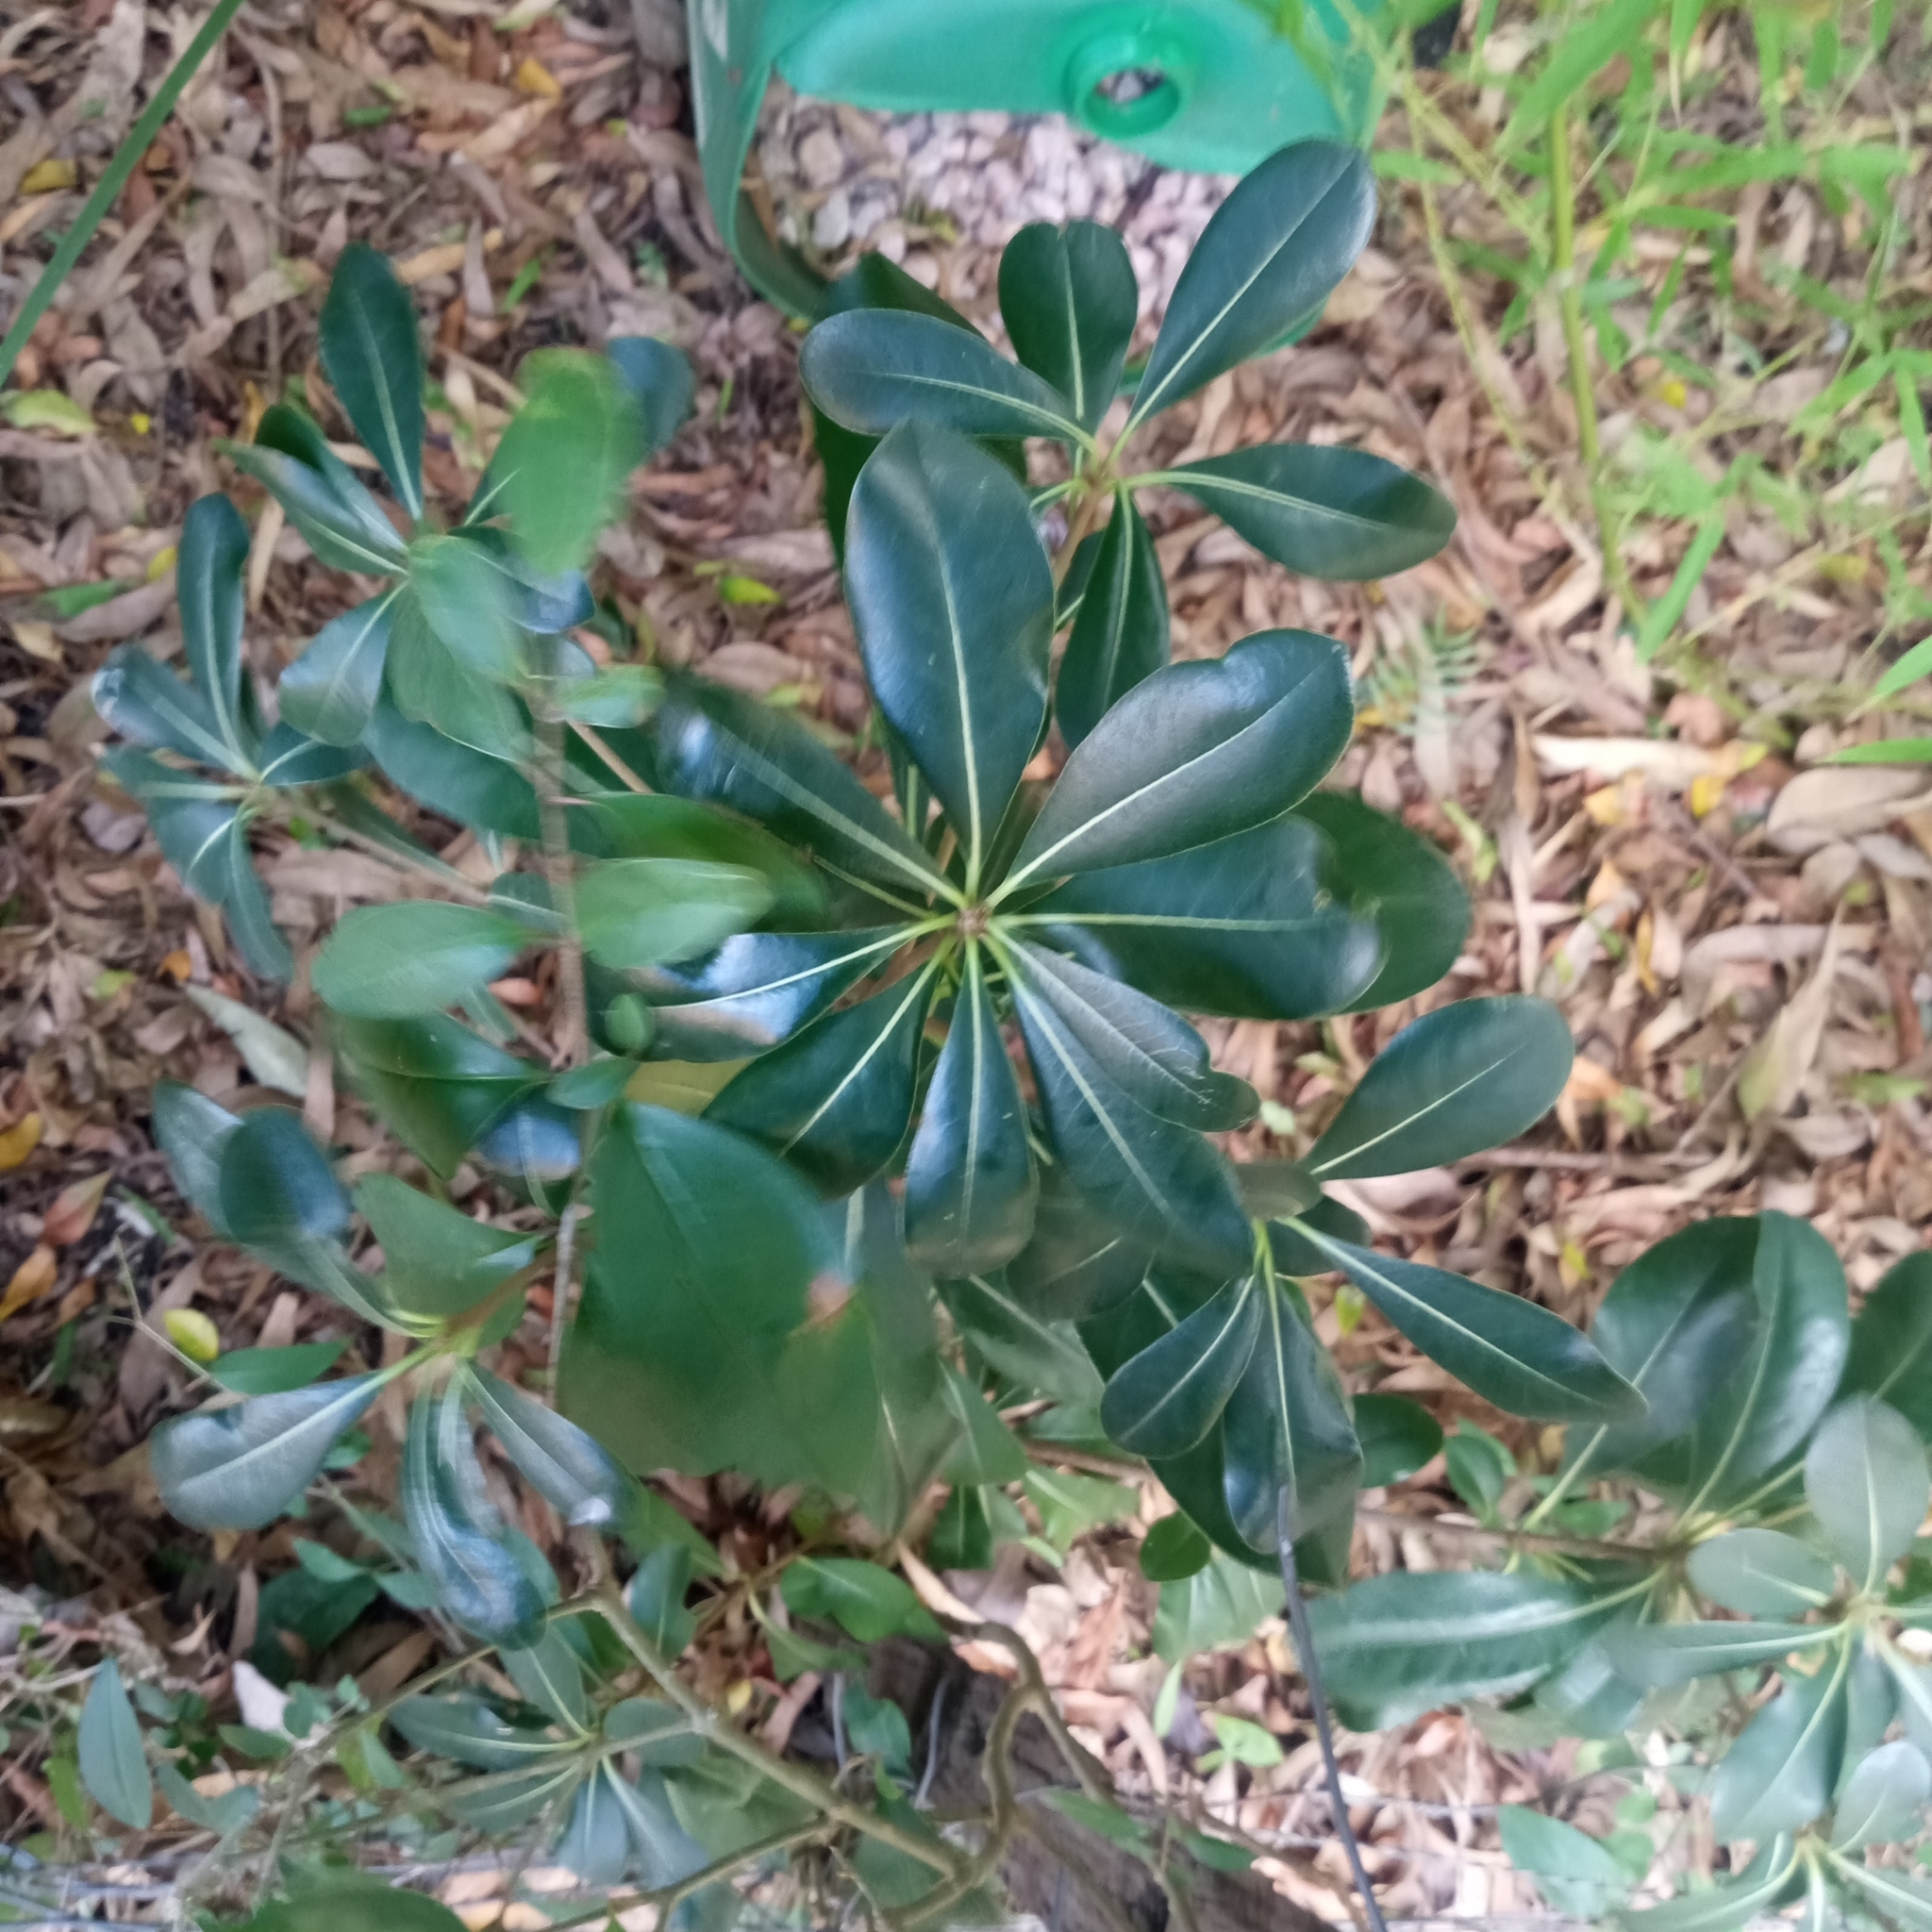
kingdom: Plantae
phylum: Tracheophyta
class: Magnoliopsida
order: Apiales
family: Pittosporaceae
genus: Pittosporum
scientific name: Pittosporum tobira
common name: Japanese cheesewood
